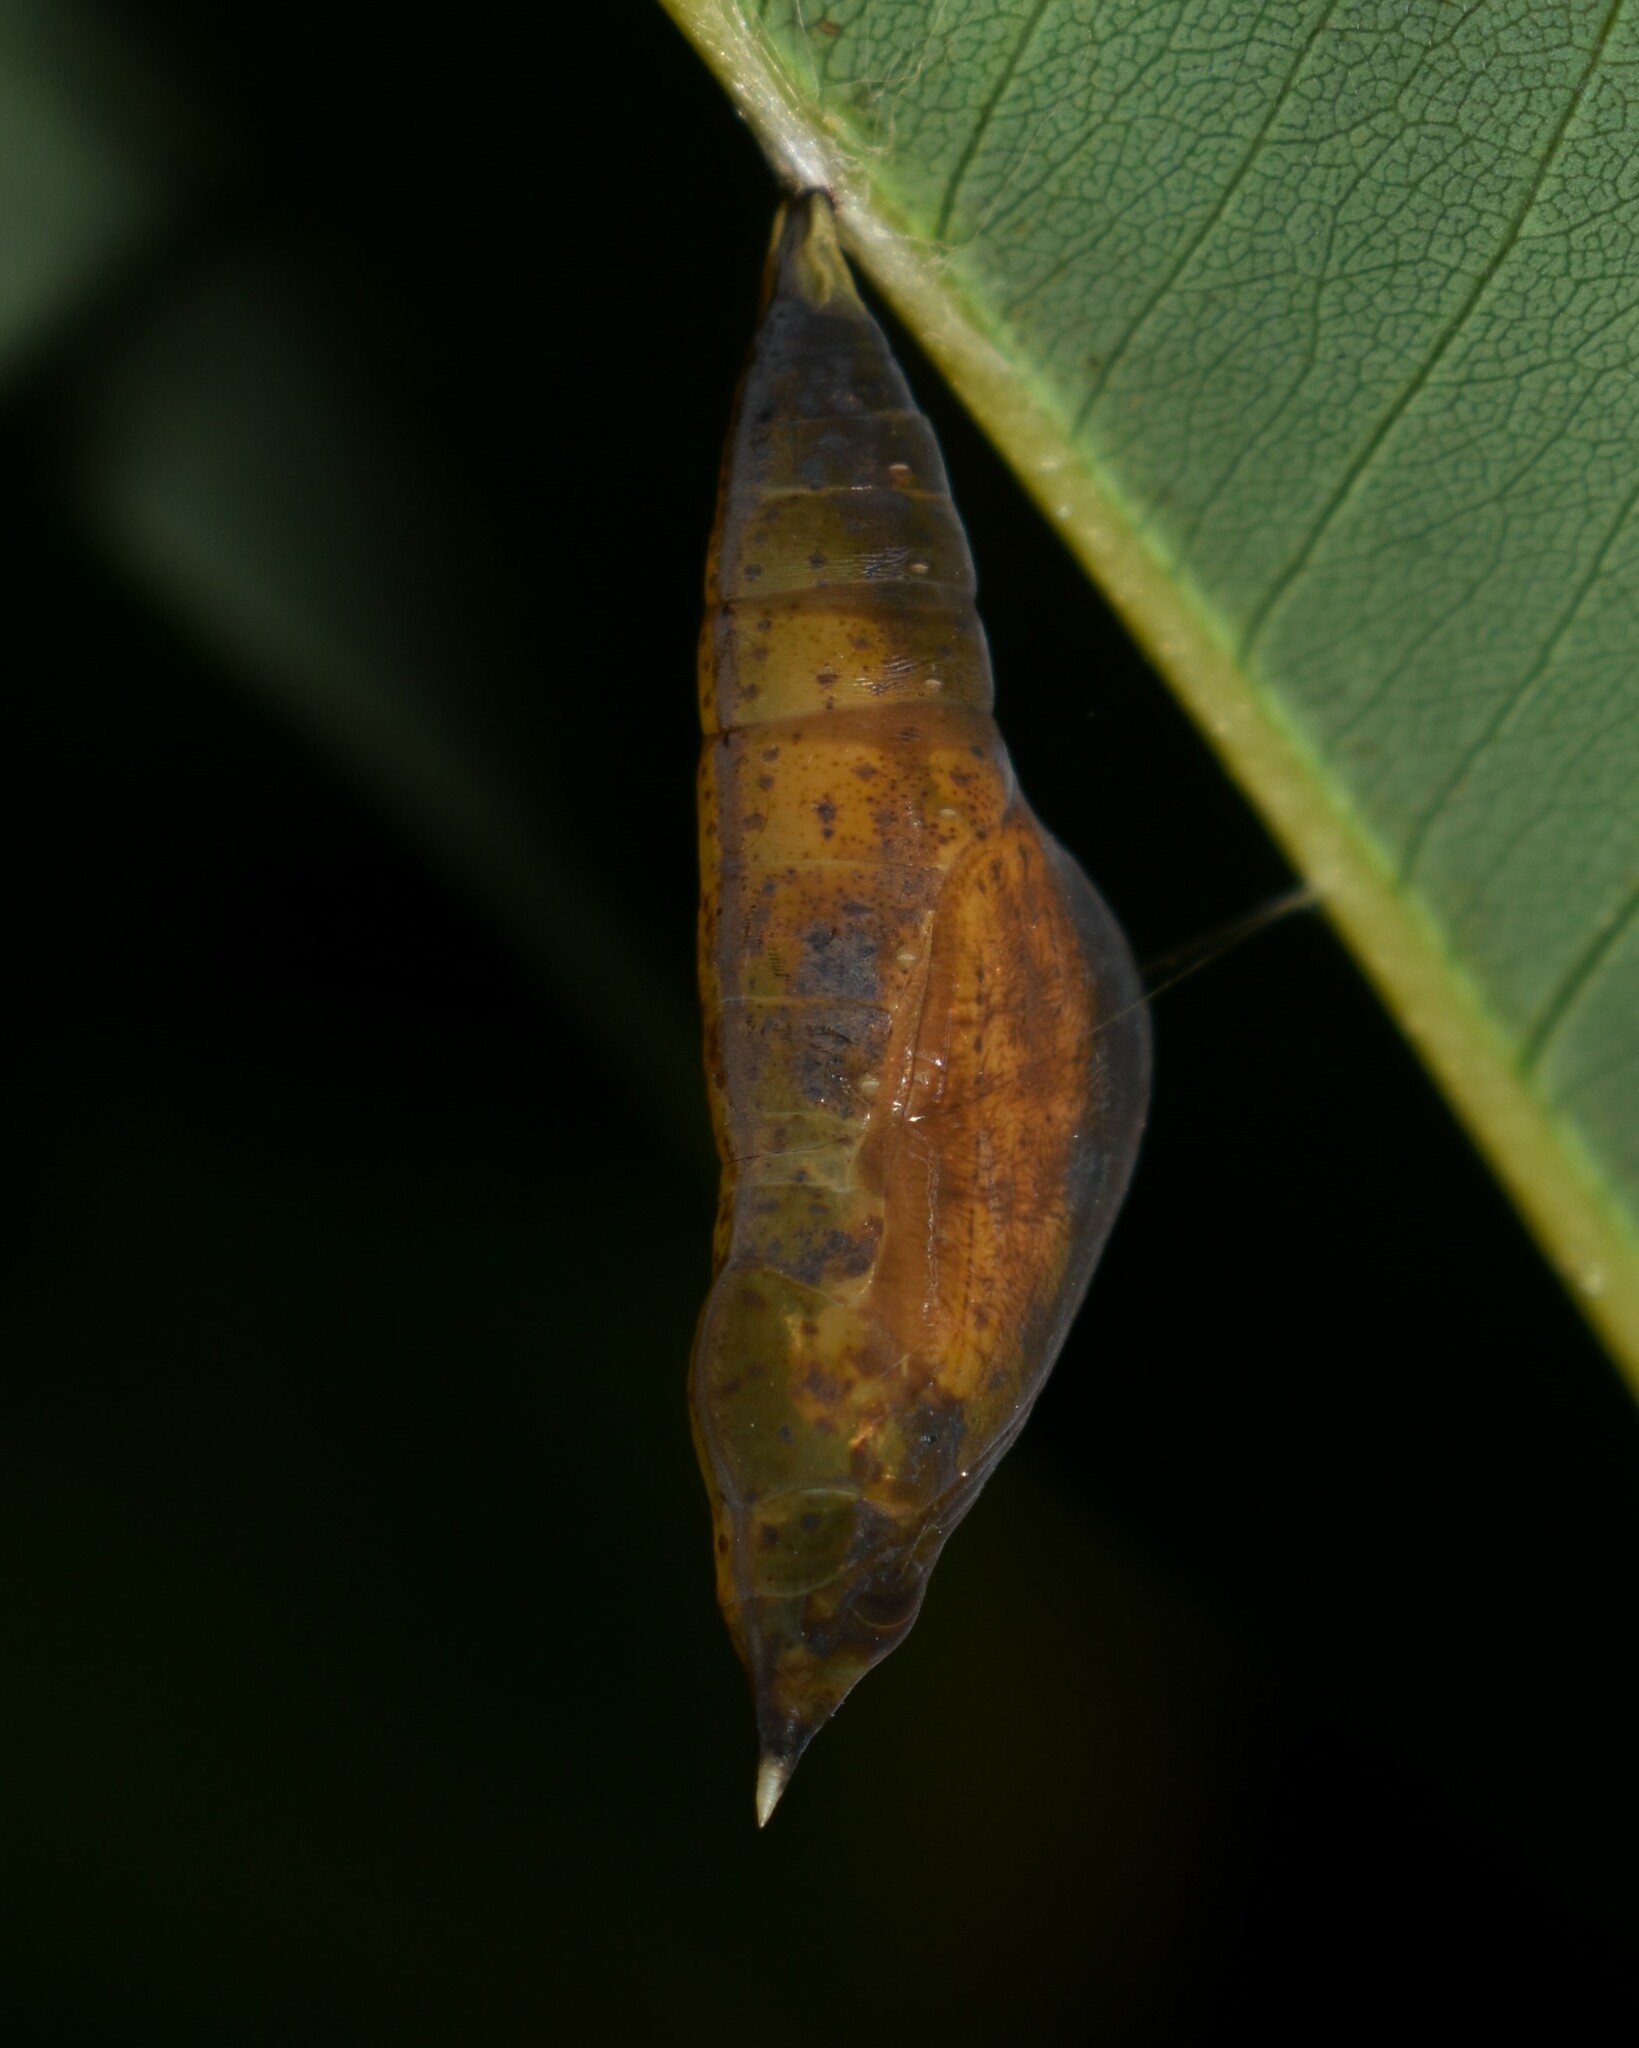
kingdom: Animalia
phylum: Arthropoda
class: Insecta
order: Lepidoptera
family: Pieridae
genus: Eurema
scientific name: Eurema blanda
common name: Three-spot grass yellow
